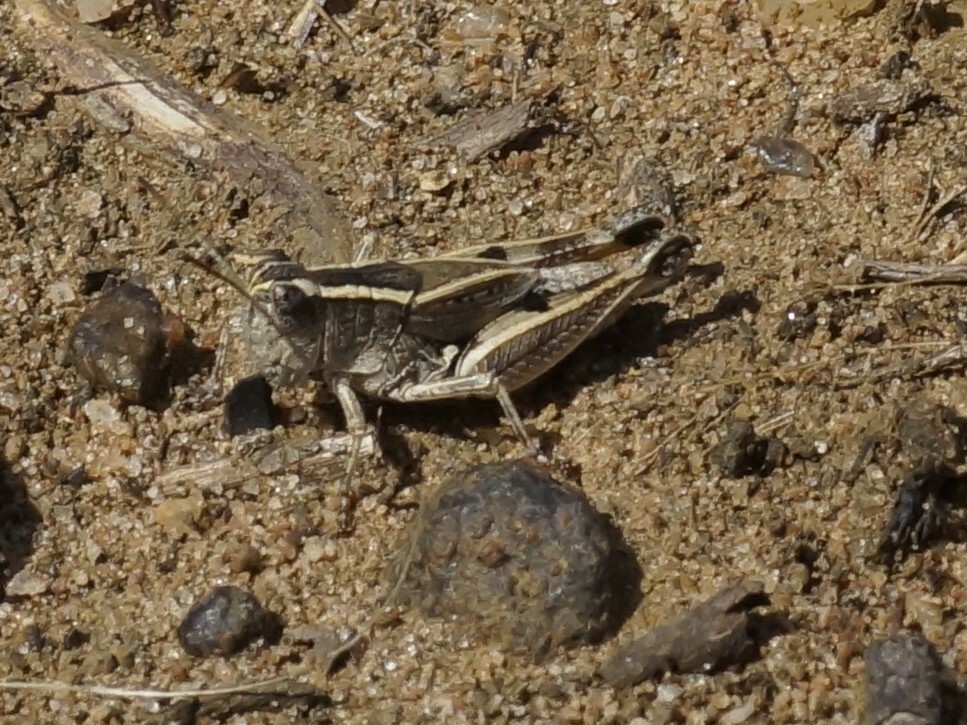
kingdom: Animalia
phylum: Arthropoda
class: Insecta
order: Orthoptera
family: Acrididae
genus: Phaulacridium
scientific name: Phaulacridium vittatum
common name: Wingless grasshopper
